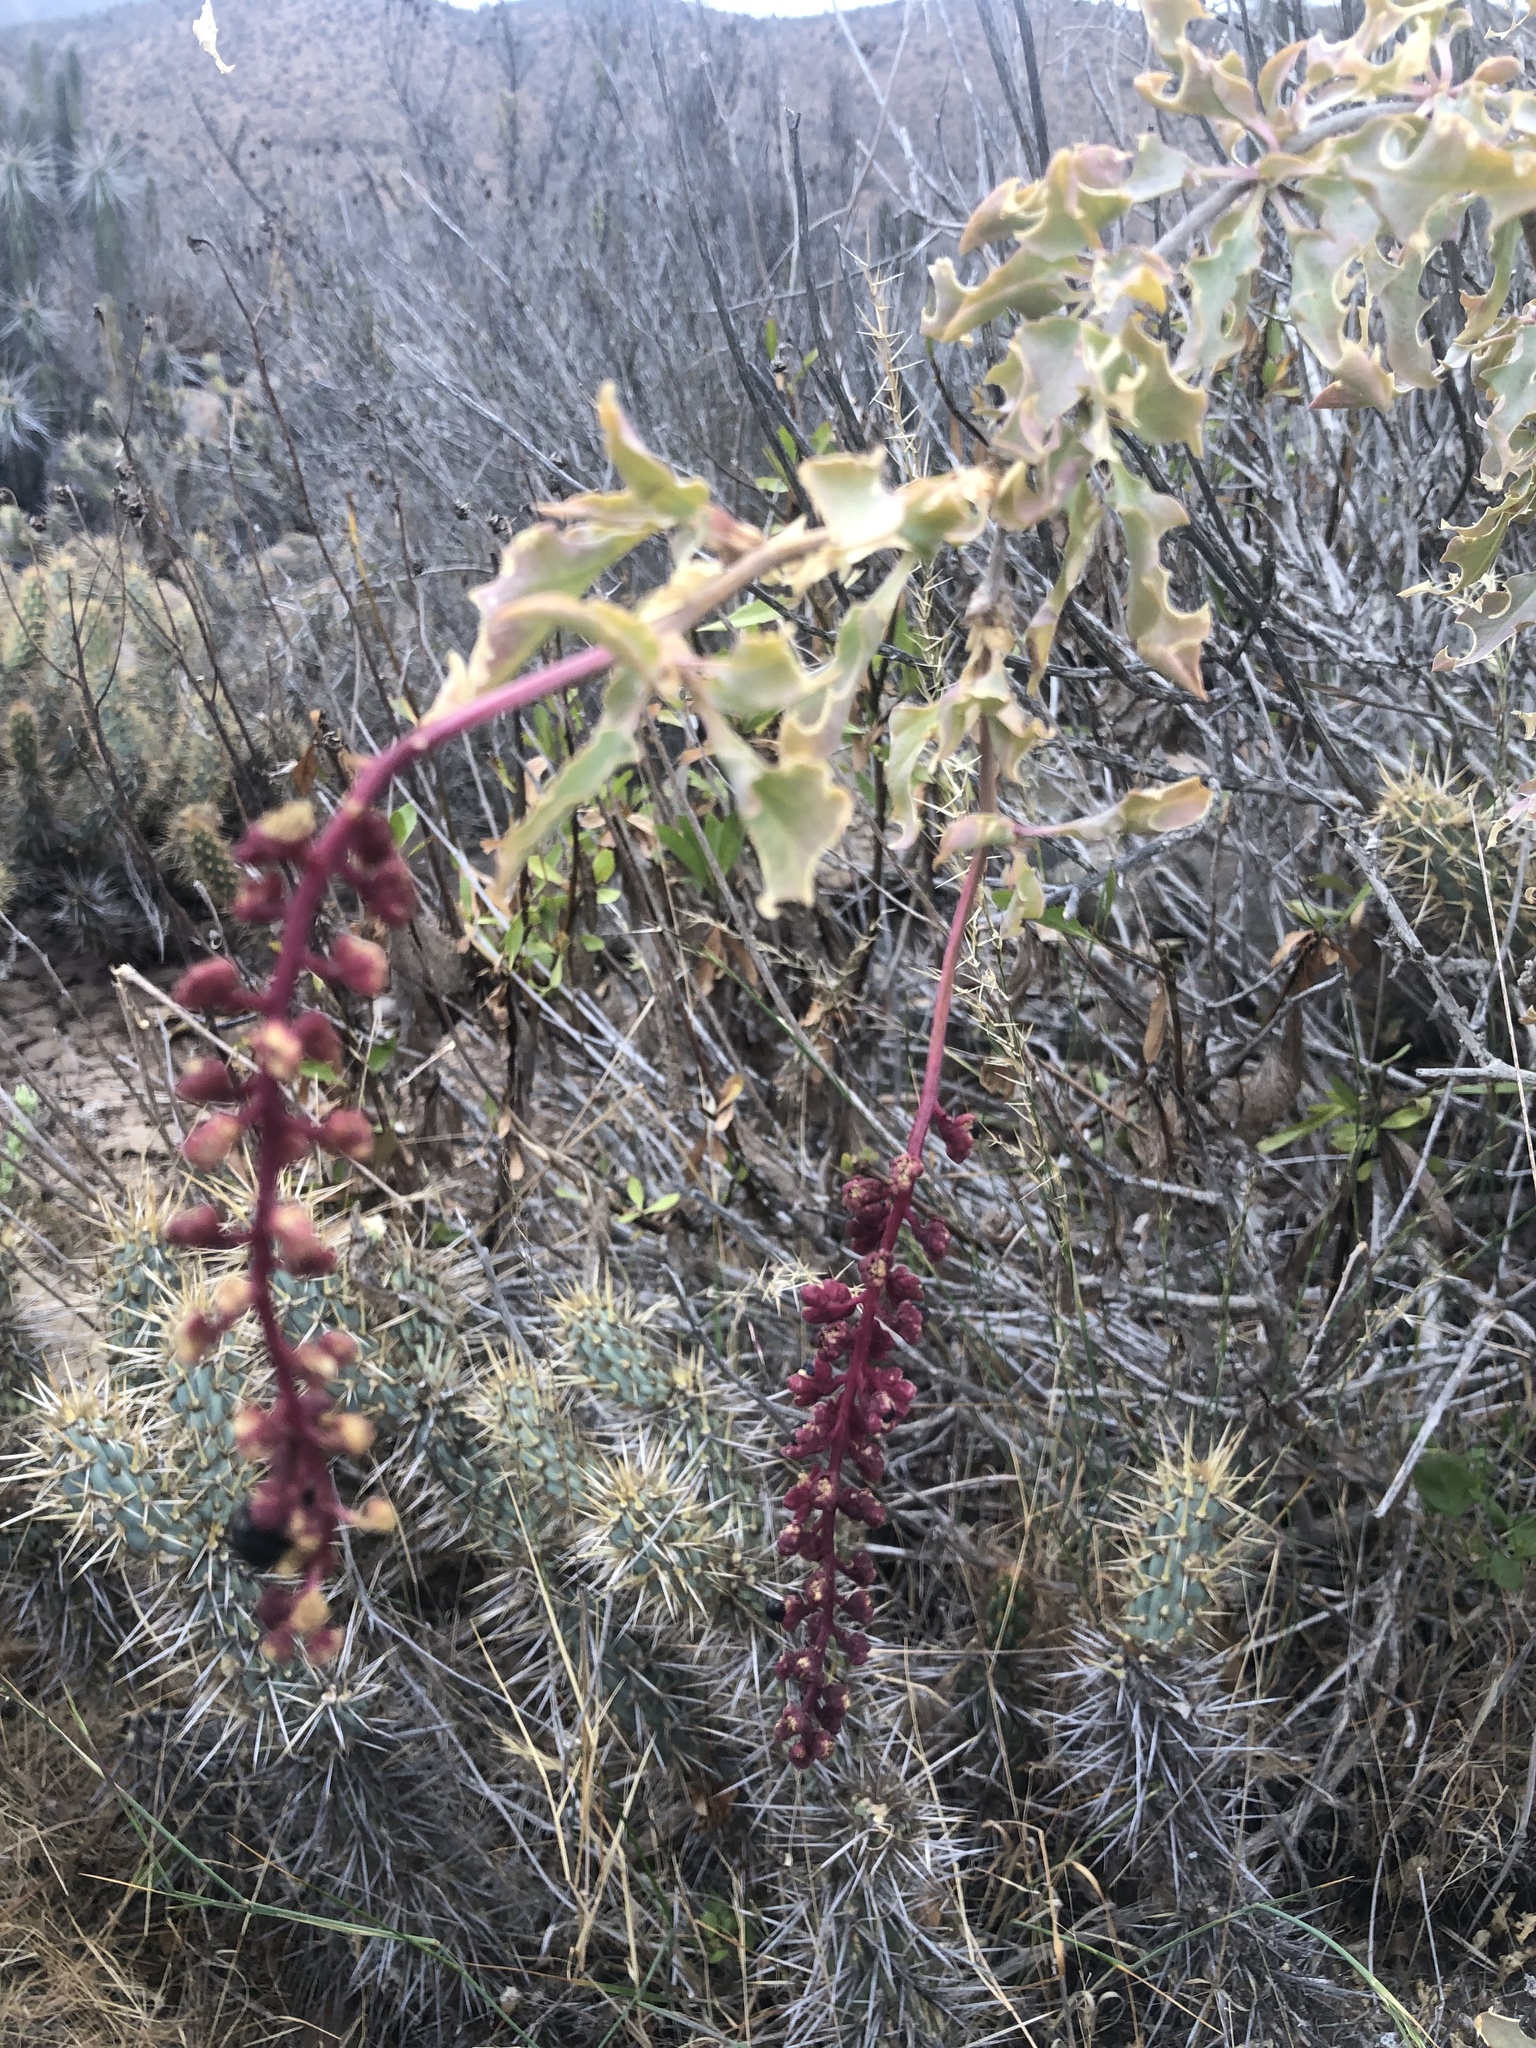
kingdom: Plantae
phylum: Tracheophyta
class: Magnoliopsida
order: Caryophyllales
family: Phytolaccaceae
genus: Anisomeria
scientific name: Anisomeria littoralis
